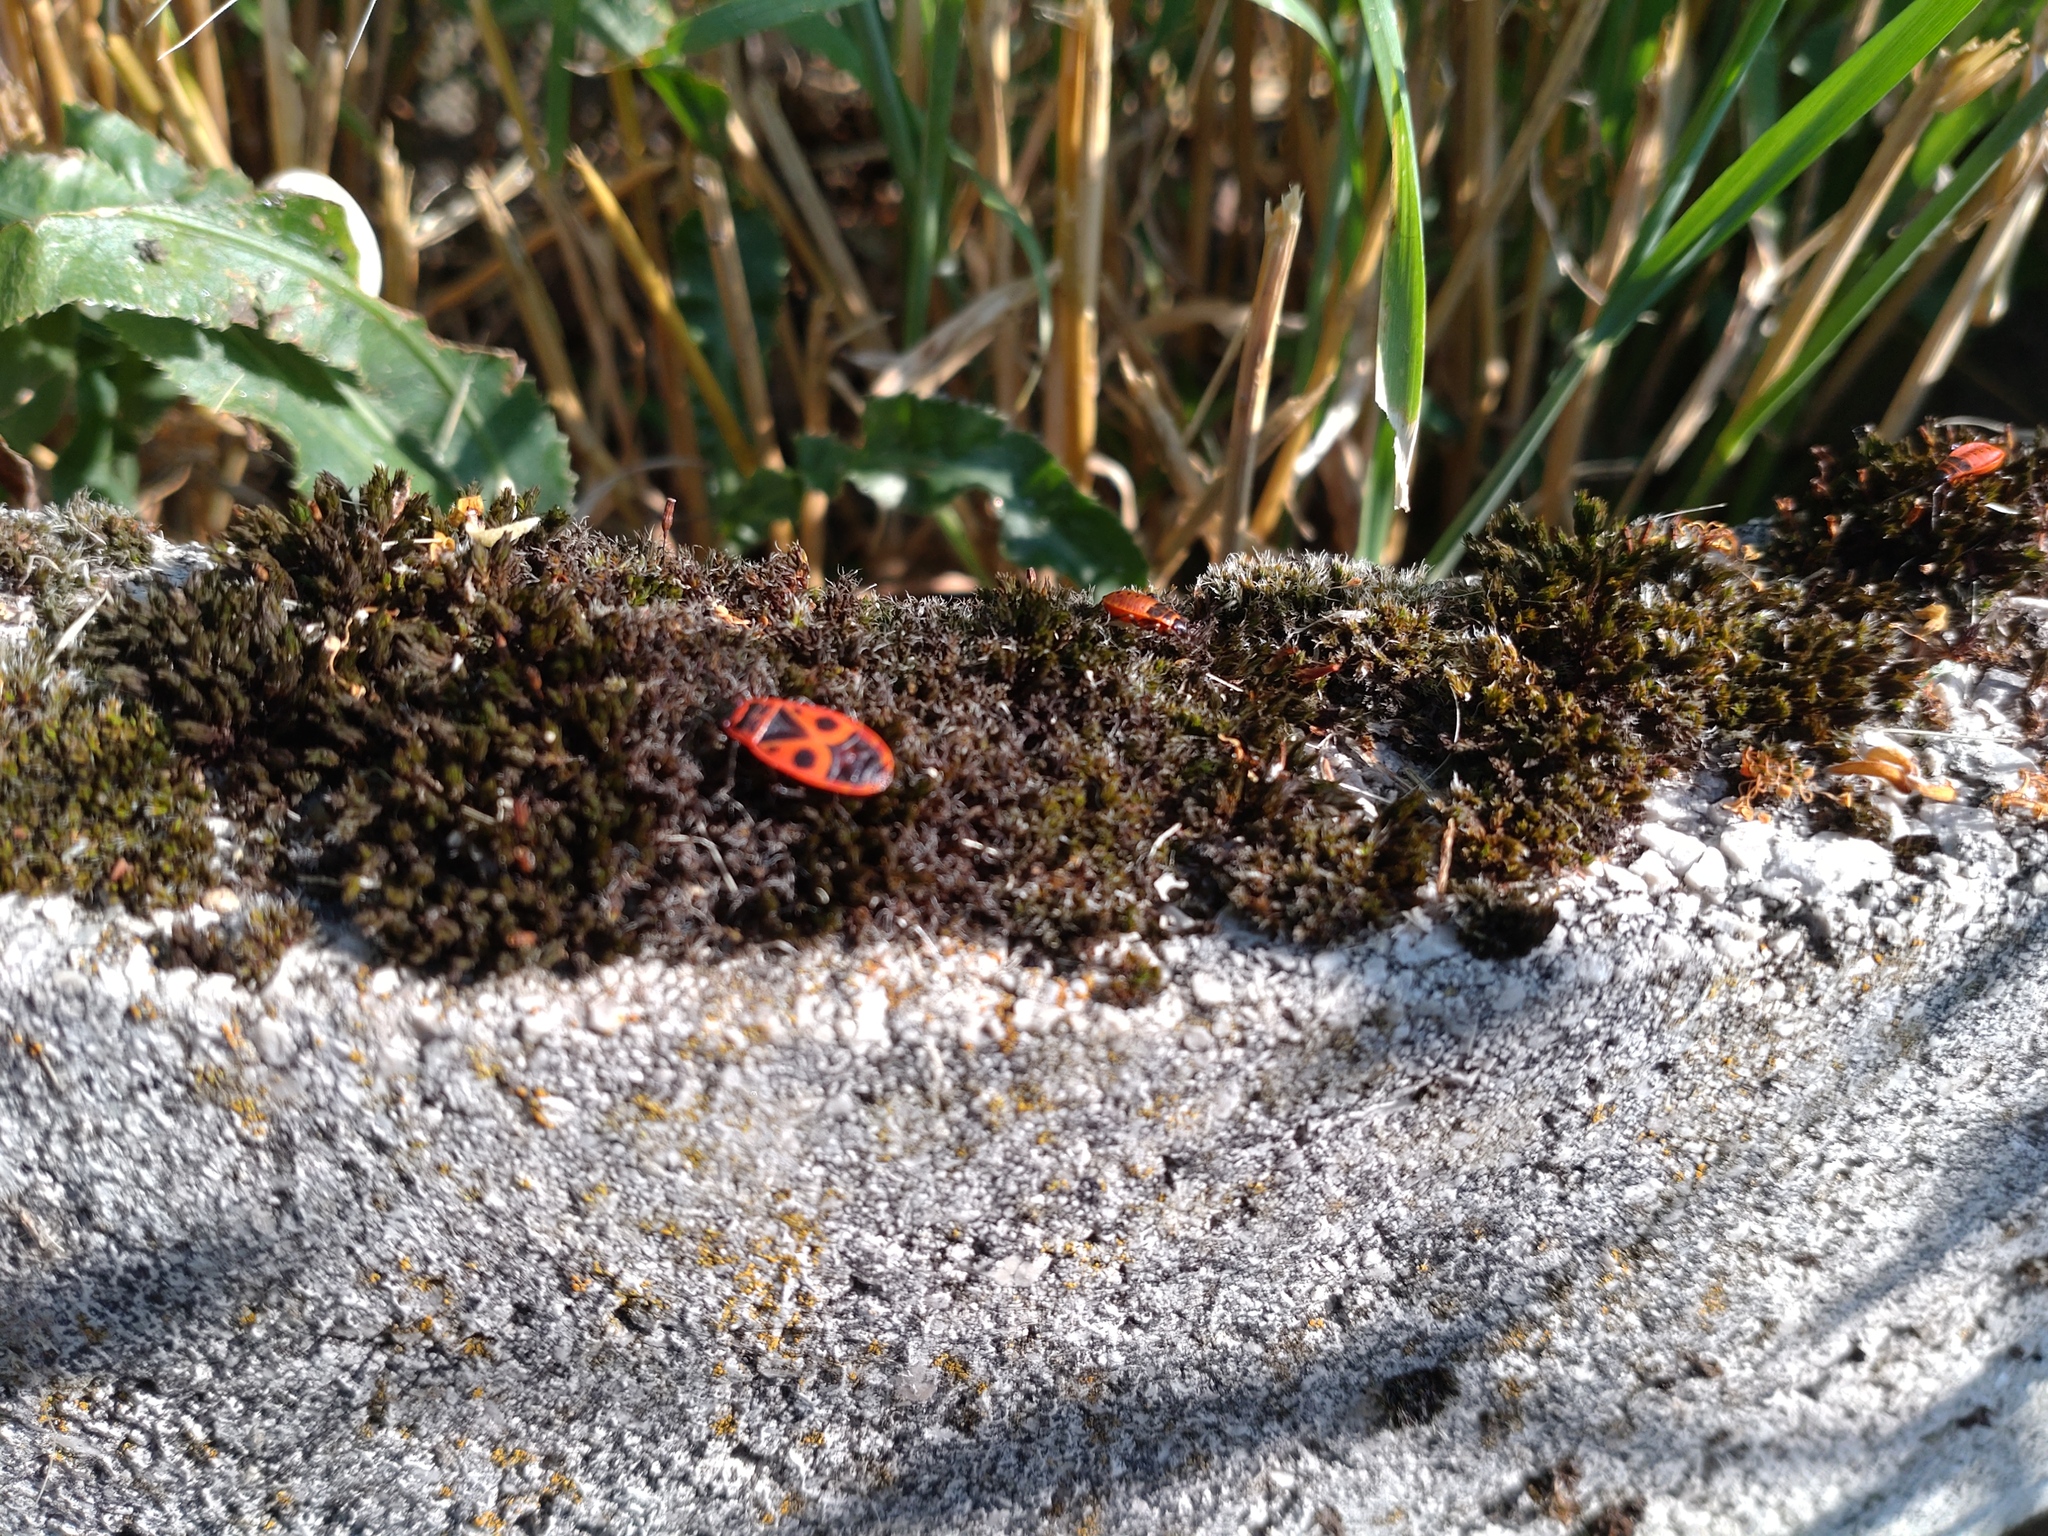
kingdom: Animalia
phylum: Arthropoda
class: Insecta
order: Hemiptera
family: Pyrrhocoridae
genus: Pyrrhocoris
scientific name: Pyrrhocoris apterus
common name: Firebug
